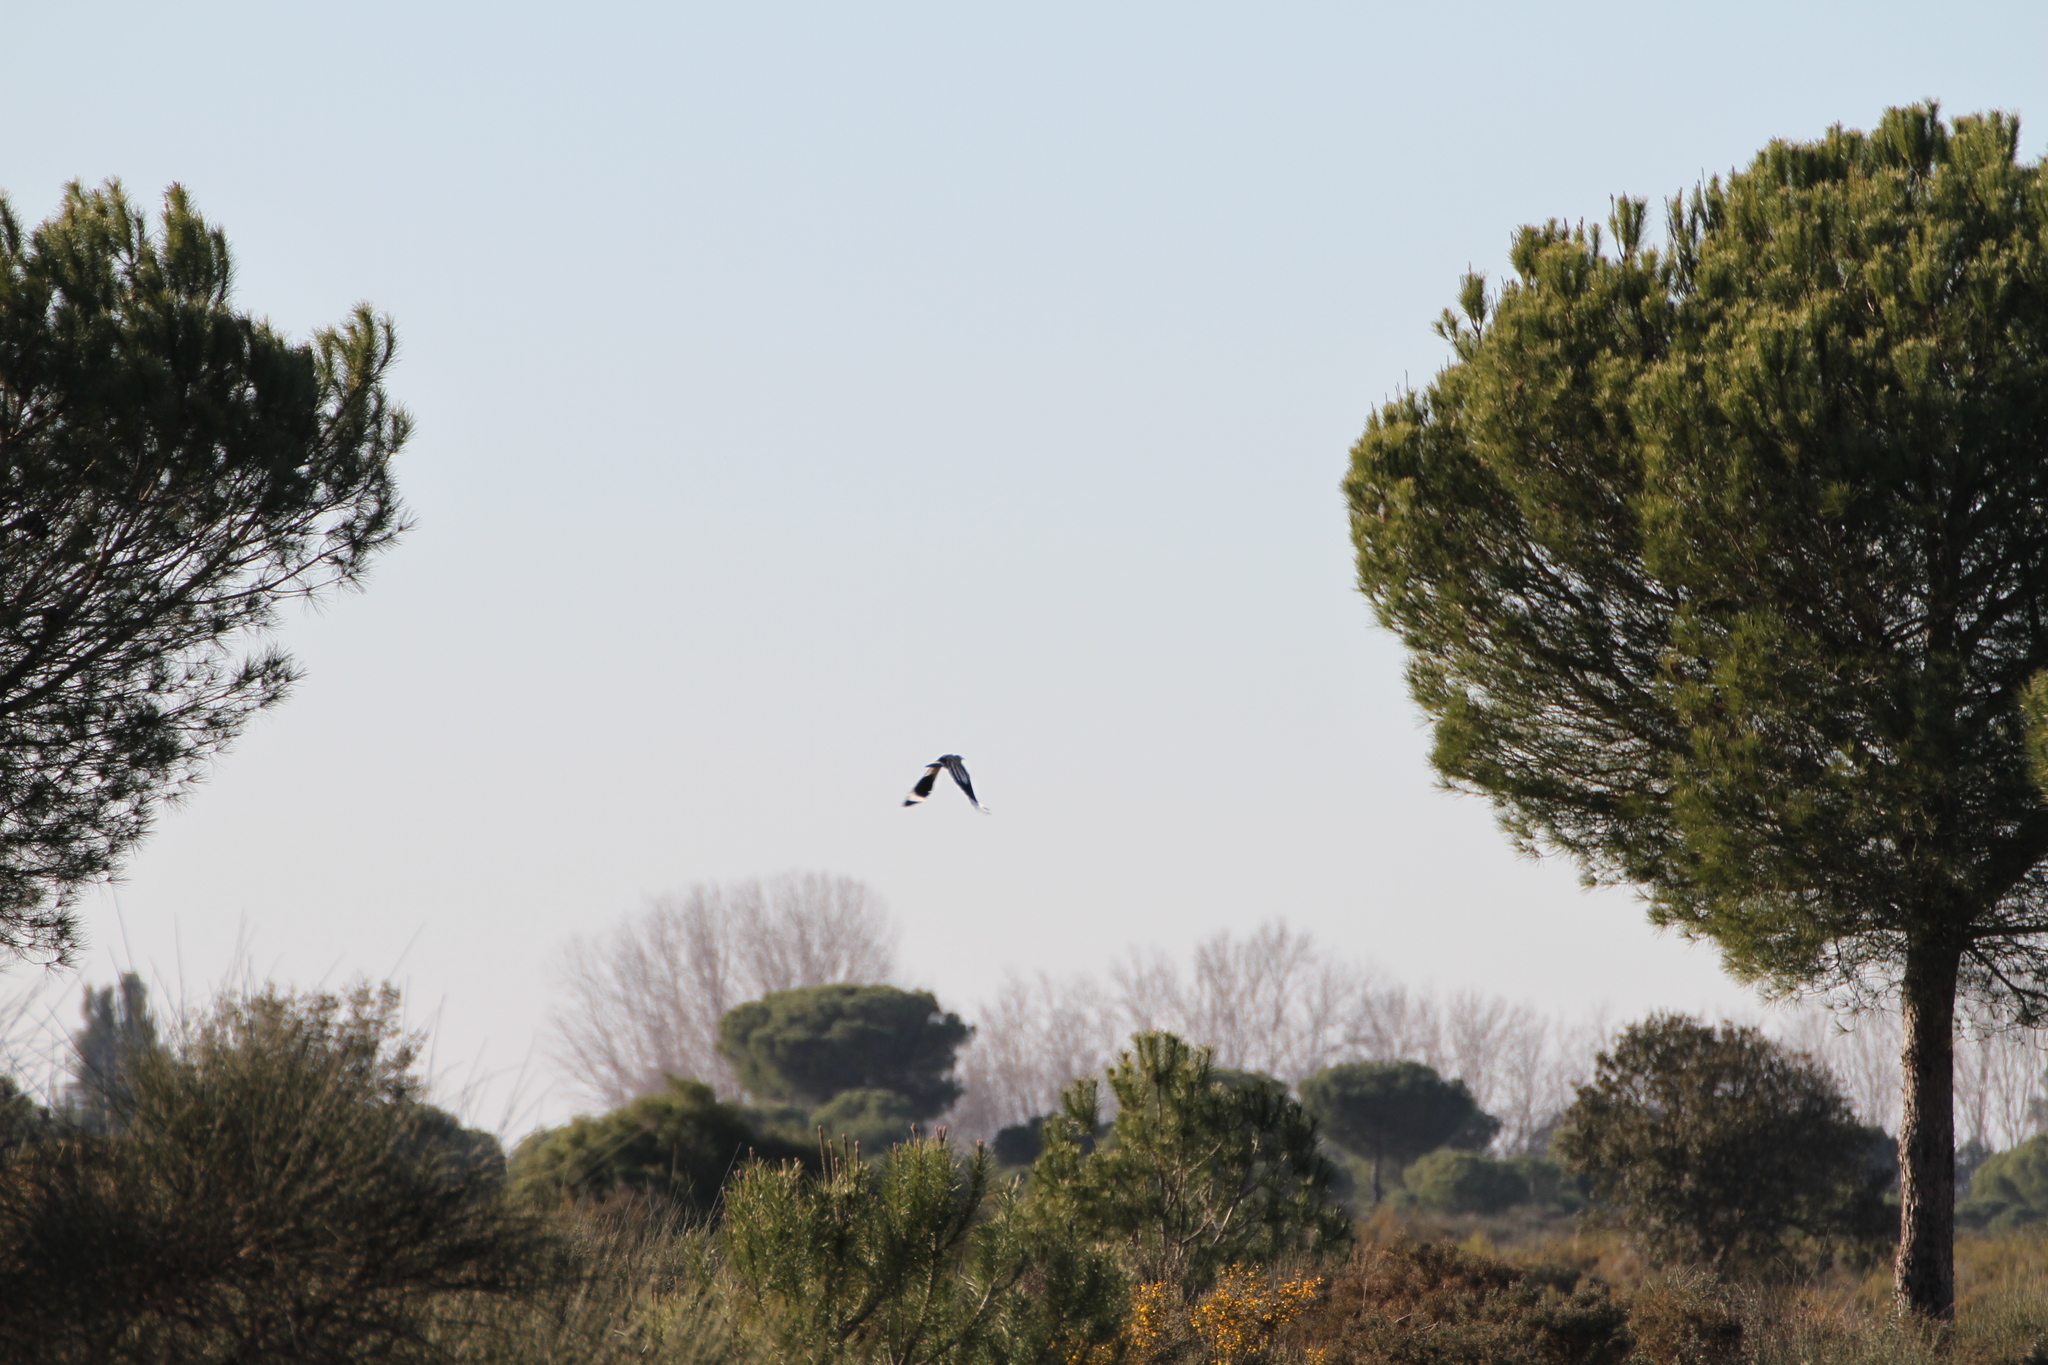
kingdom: Animalia
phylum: Chordata
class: Aves
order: Bucerotiformes
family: Upupidae
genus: Upupa
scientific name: Upupa epops
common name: Eurasian hoopoe
